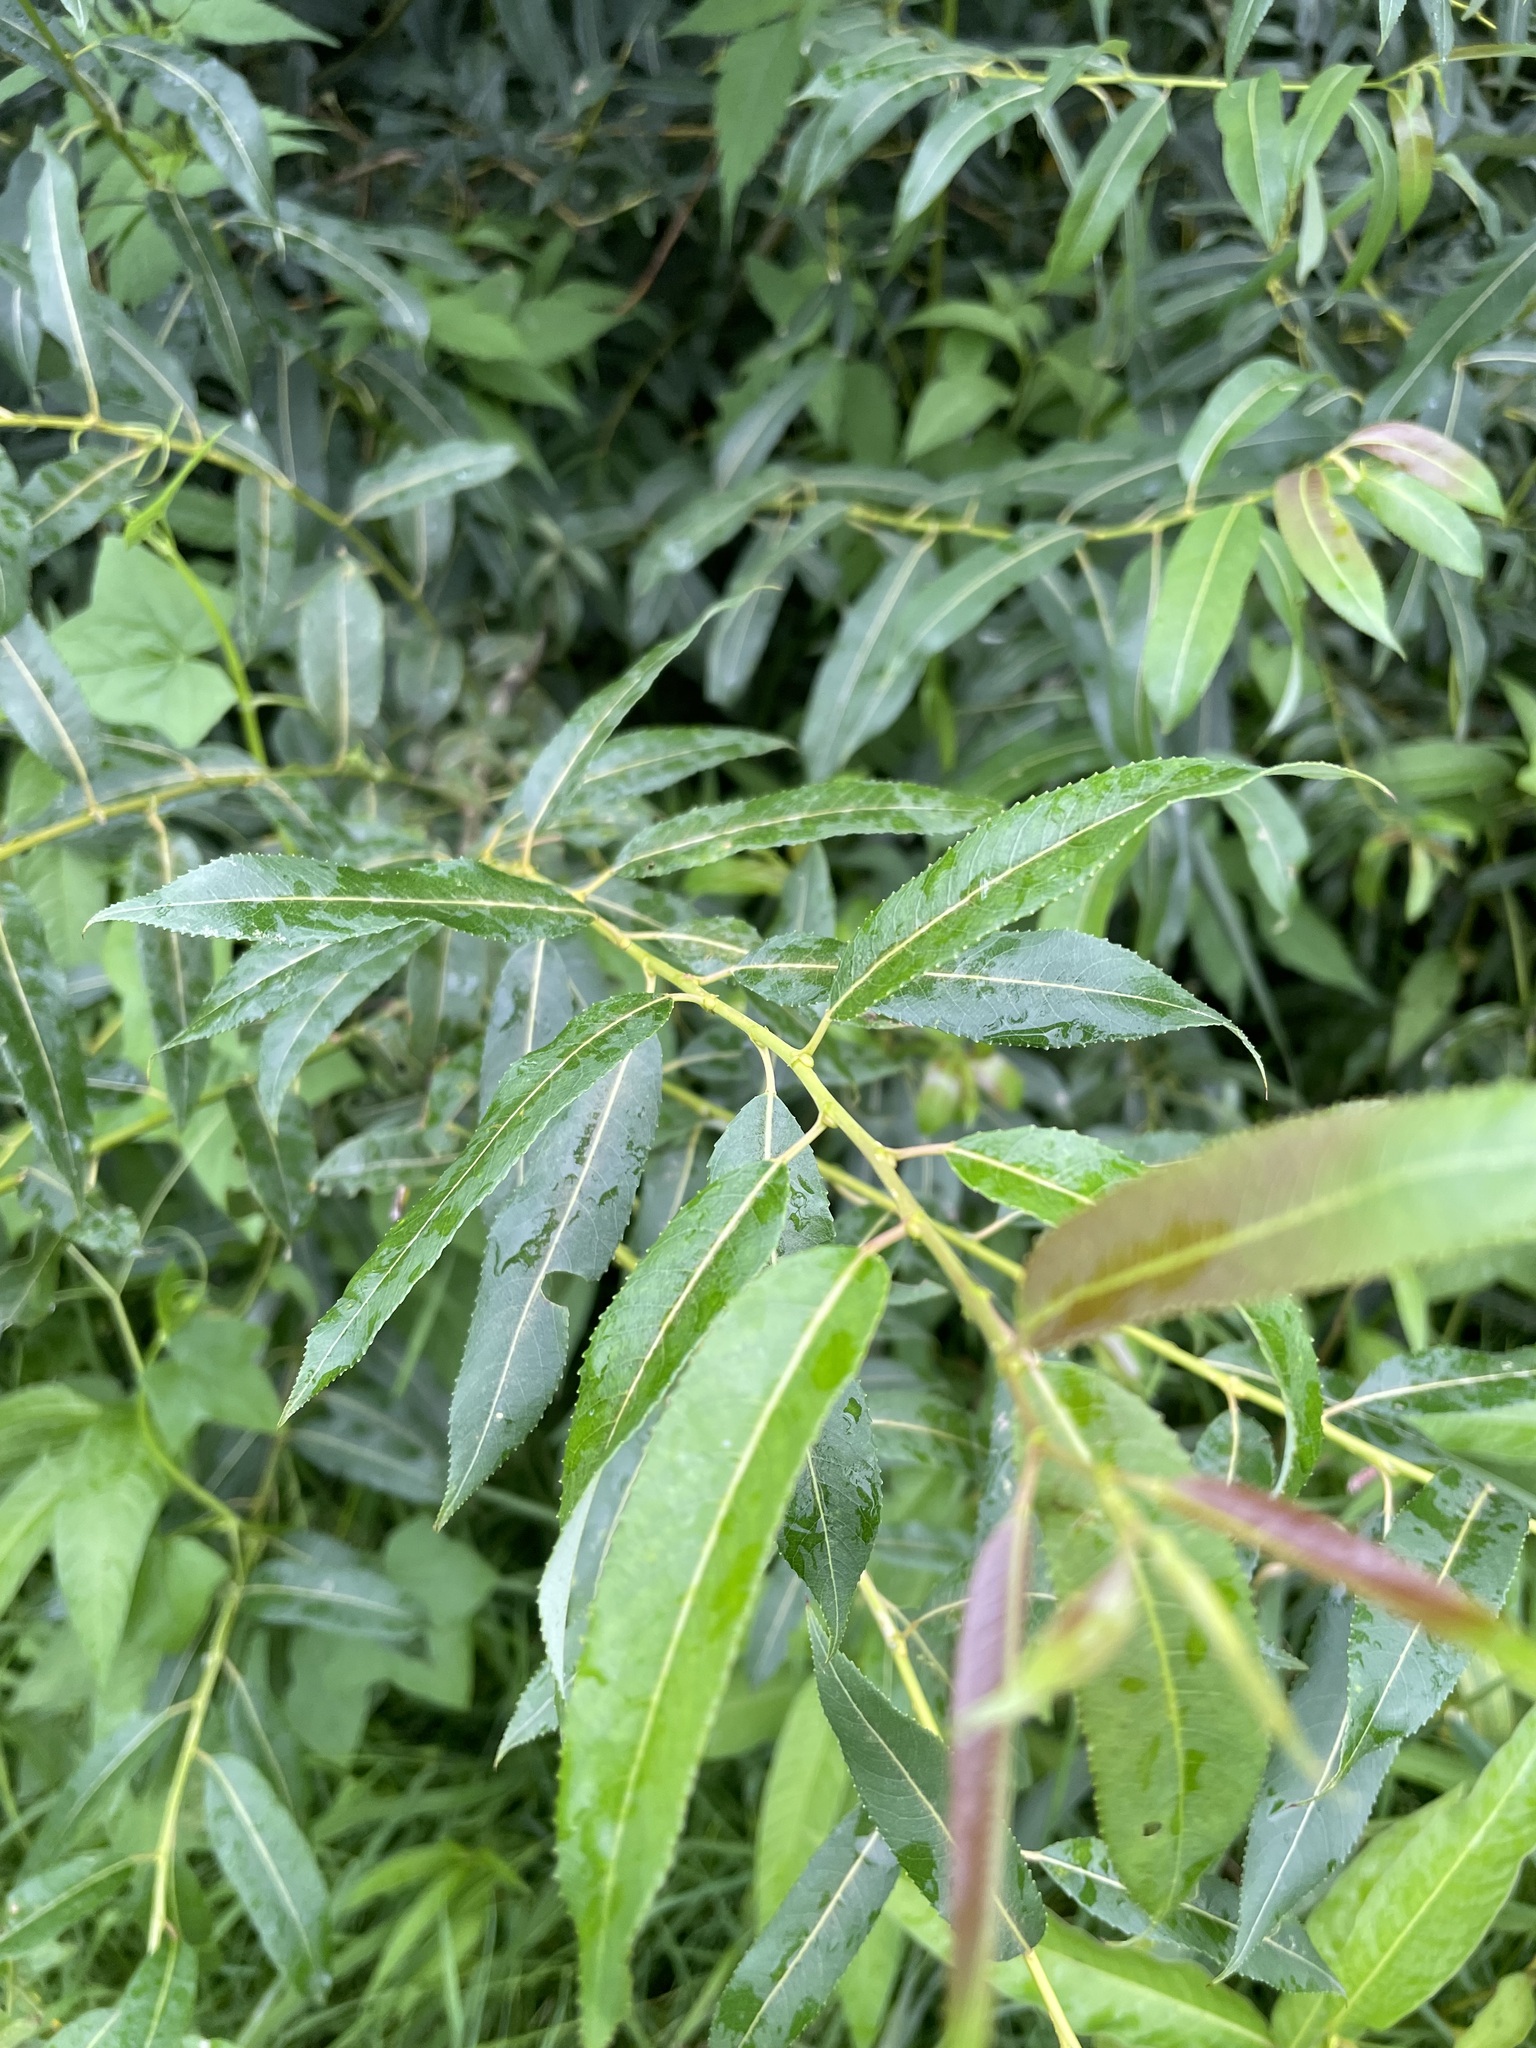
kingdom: Plantae
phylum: Tracheophyta
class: Magnoliopsida
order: Malpighiales
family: Salicaceae
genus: Salix
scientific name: Salix triandra
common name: Almond willow
